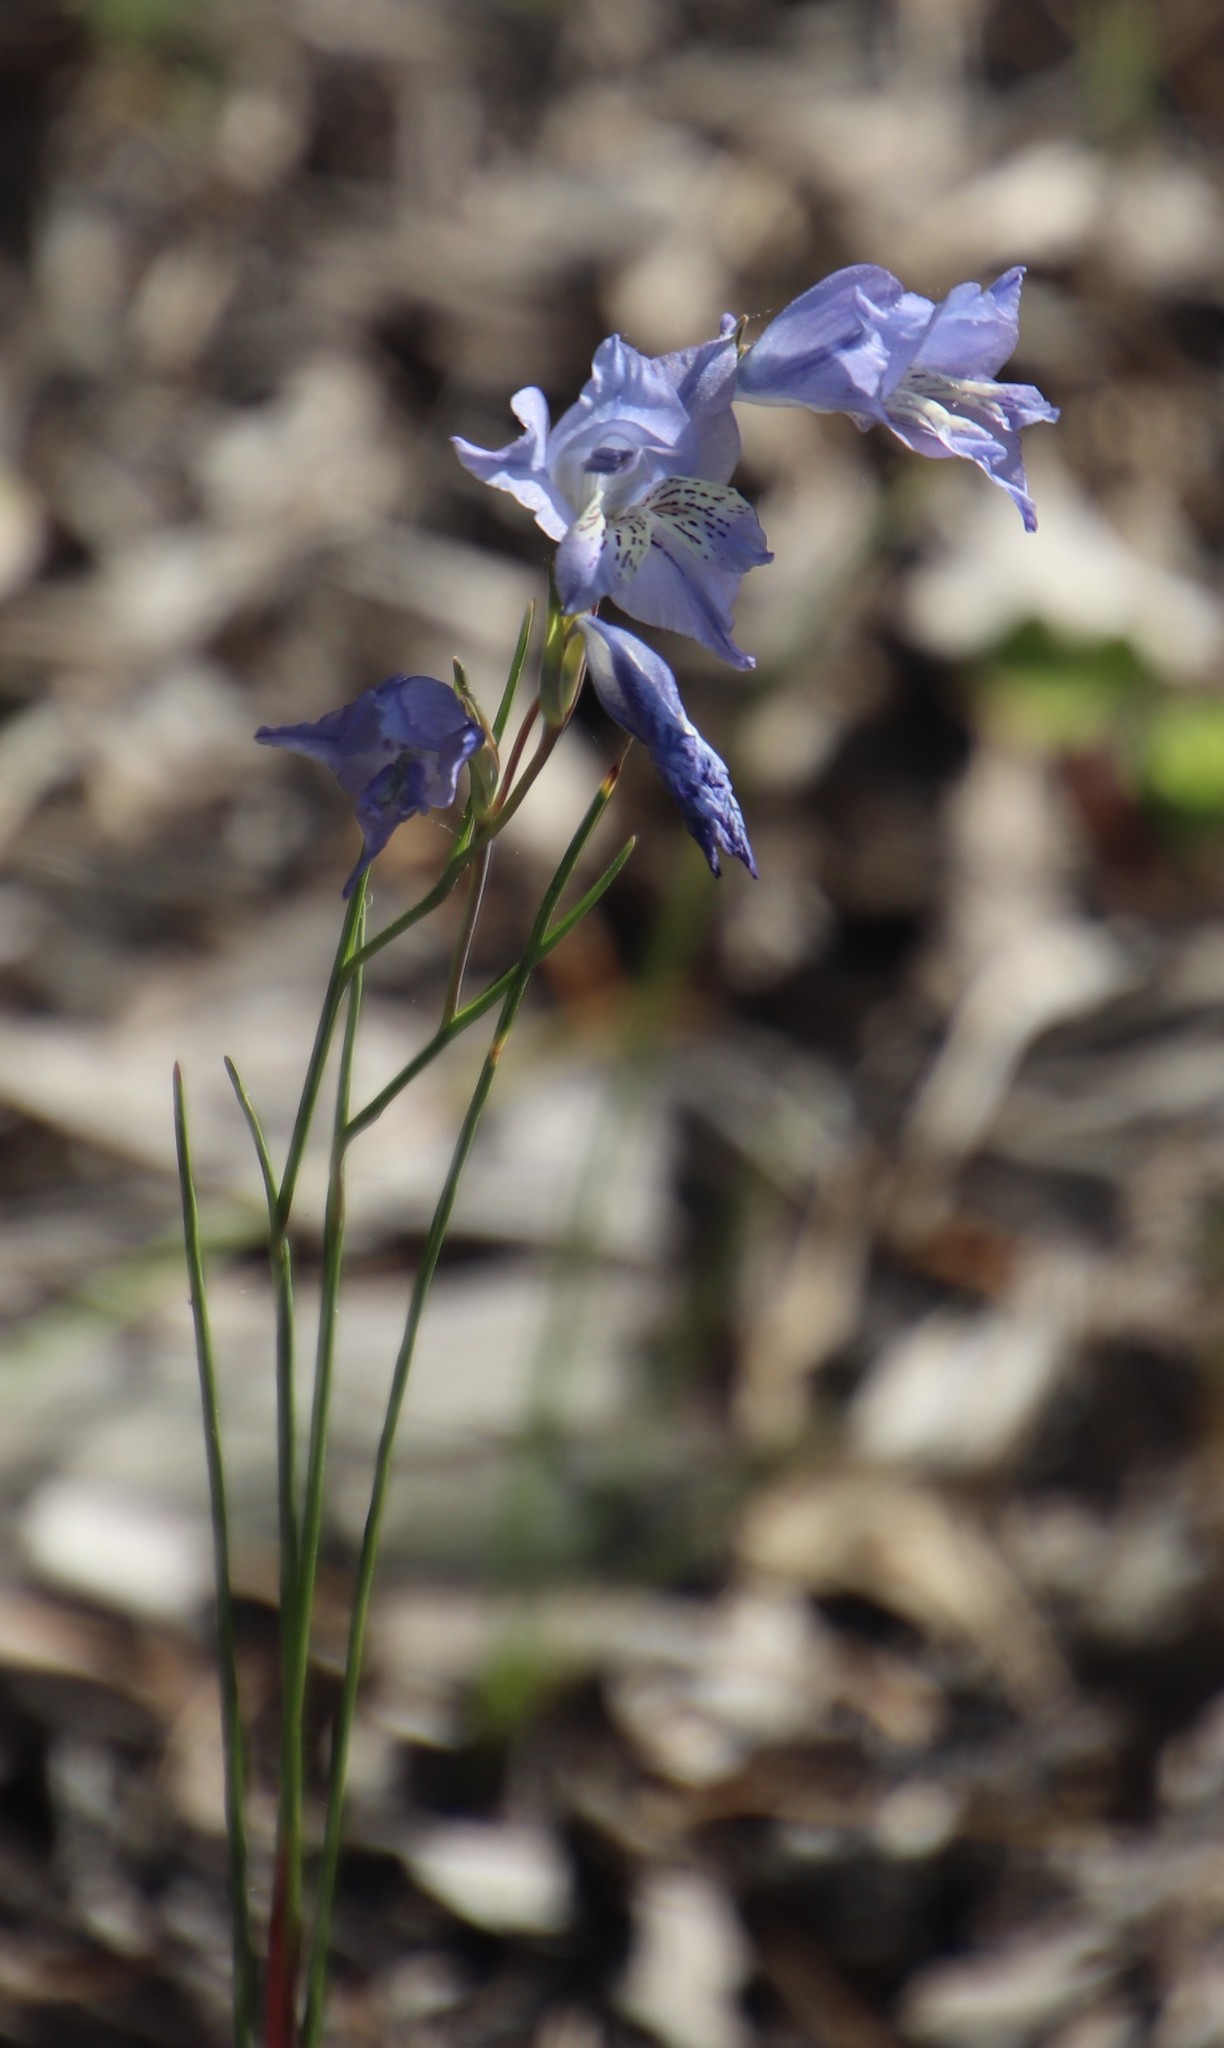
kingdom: Plantae
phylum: Tracheophyta
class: Liliopsida
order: Asparagales
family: Iridaceae
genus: Gladiolus
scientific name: Gladiolus gracilis
